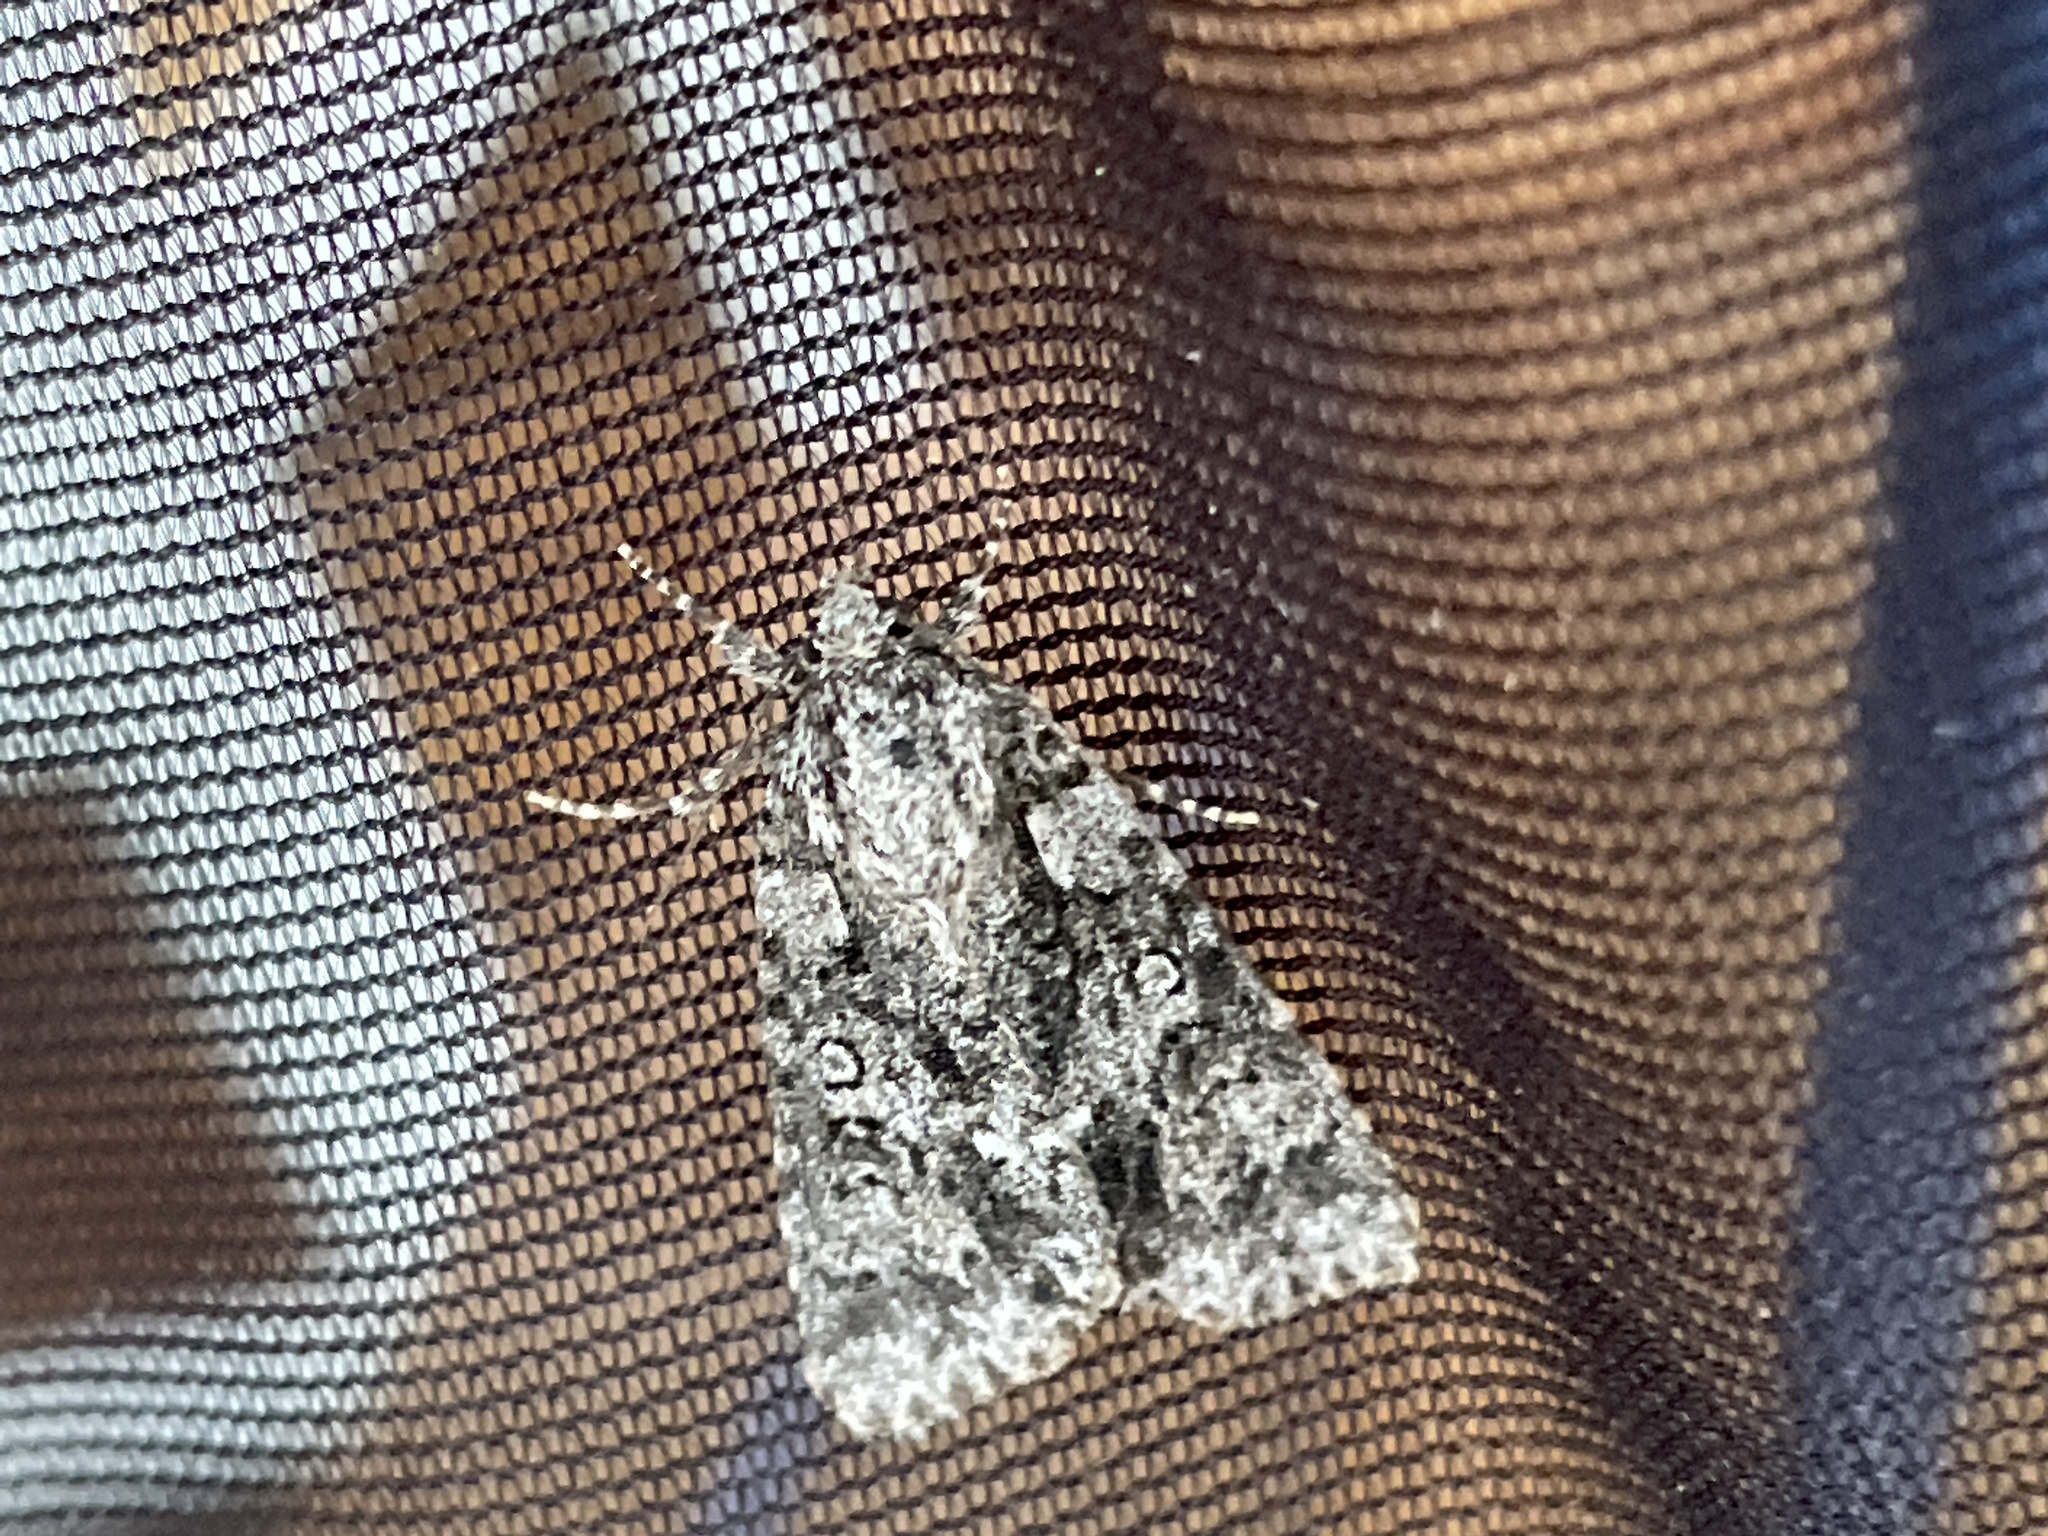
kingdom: Animalia
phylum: Arthropoda
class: Insecta
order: Lepidoptera
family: Noctuidae
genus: Acronicta
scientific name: Acronicta rumicis
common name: Knot grass
